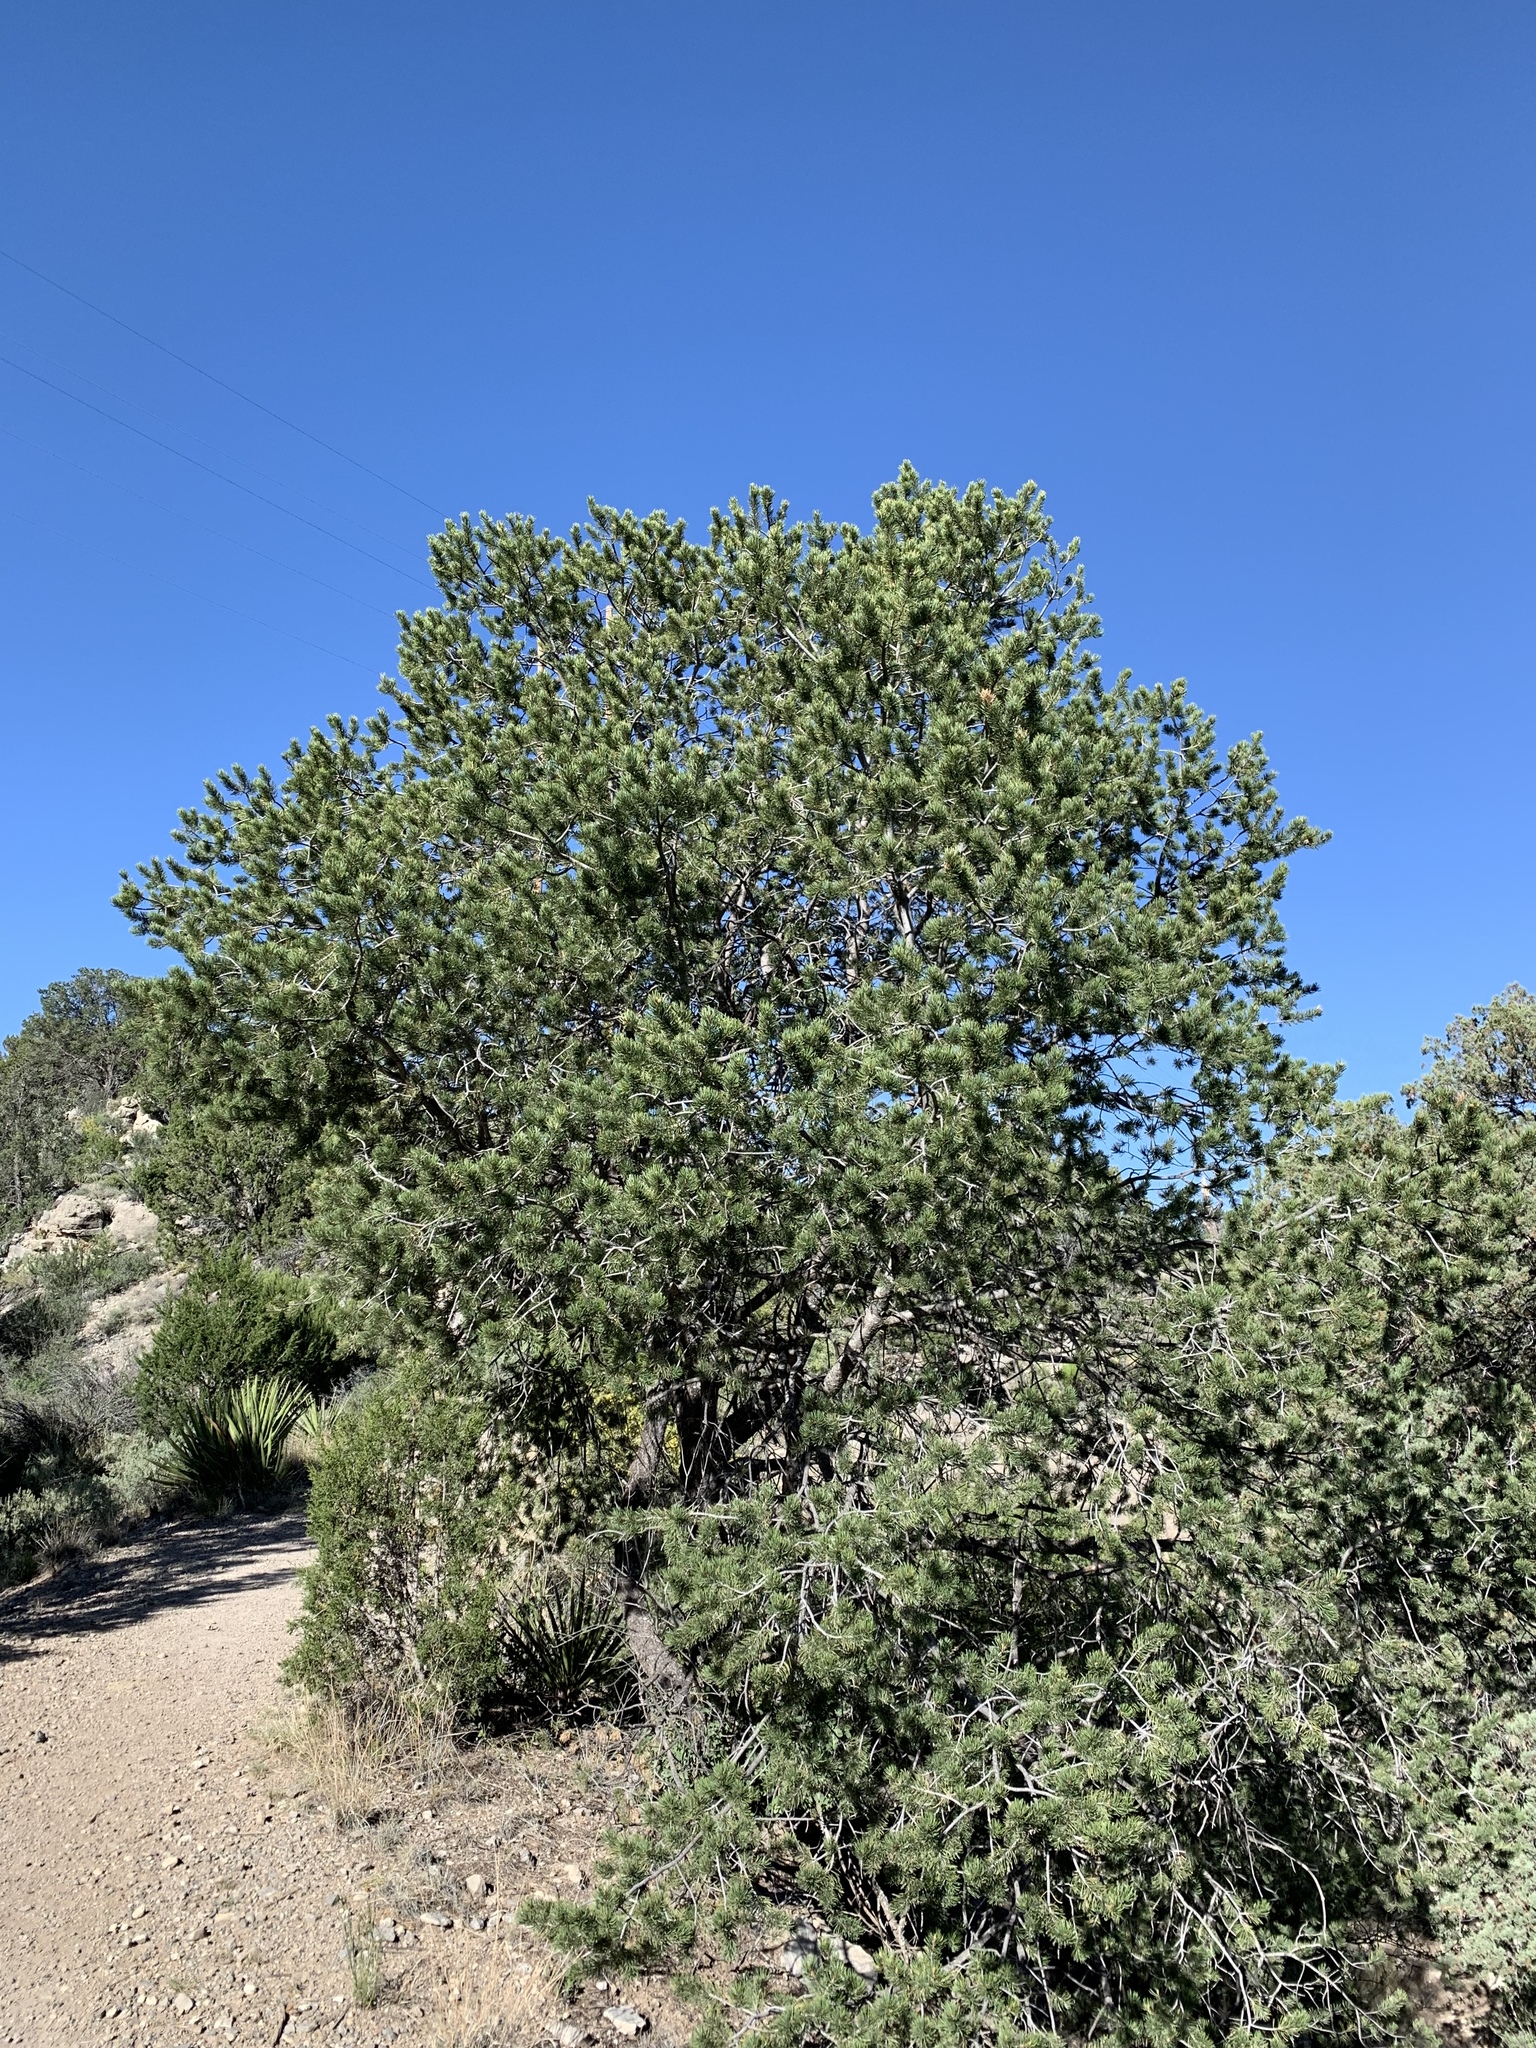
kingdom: Plantae
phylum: Tracheophyta
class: Pinopsida
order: Pinales
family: Pinaceae
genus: Pinus
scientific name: Pinus edulis
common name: Colorado pinyon
